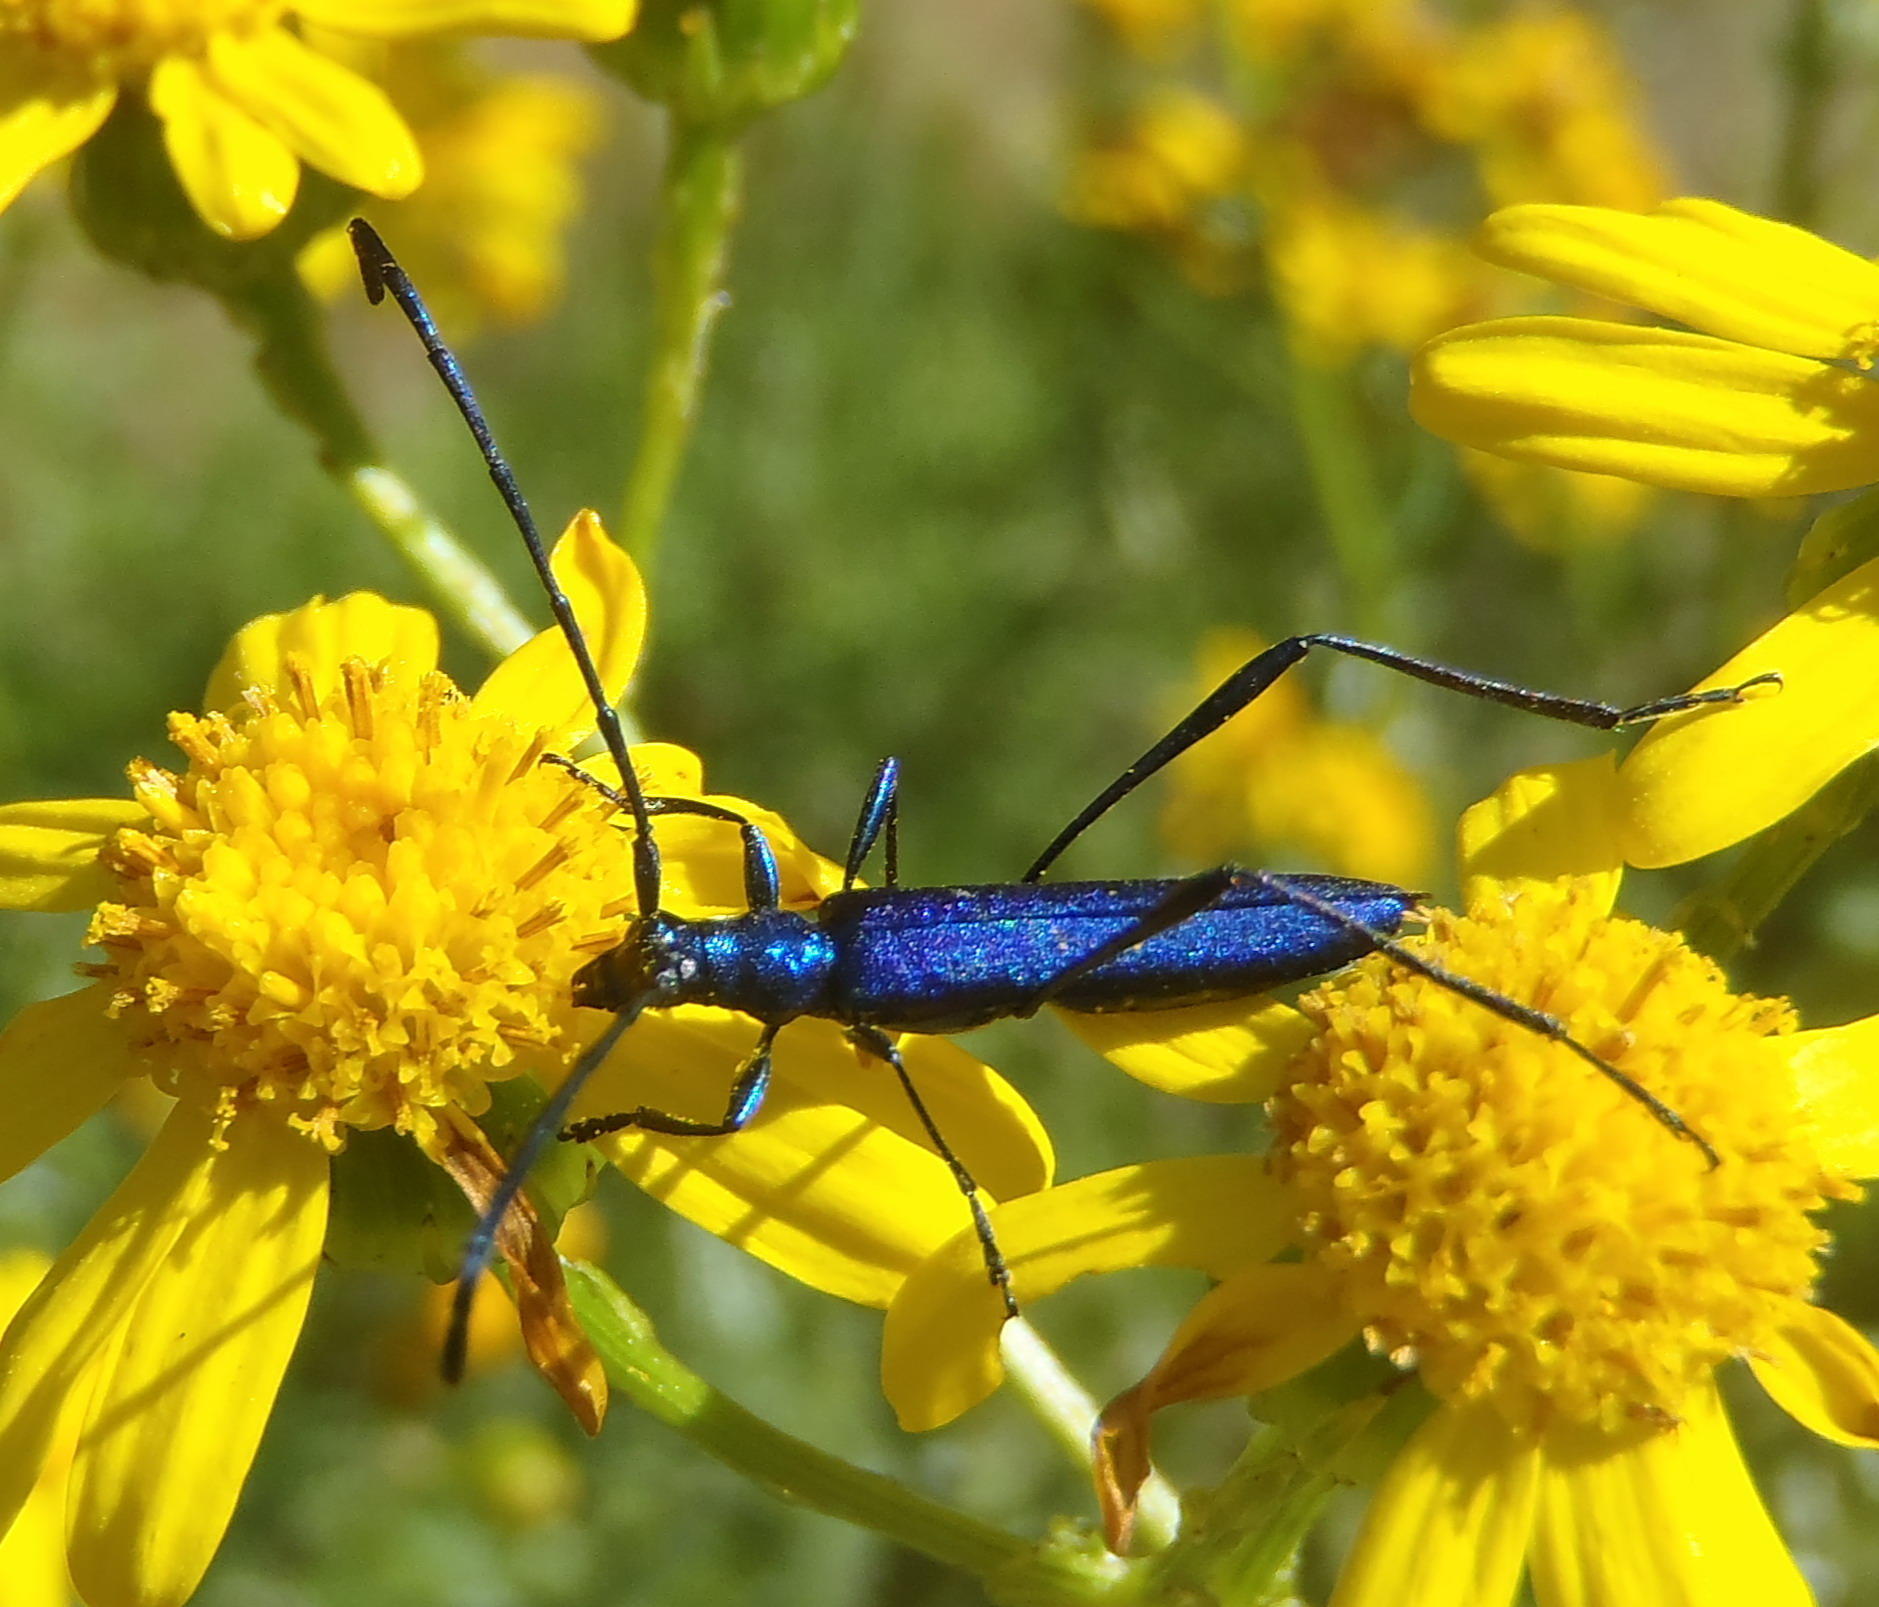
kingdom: Animalia
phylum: Arthropoda
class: Insecta
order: Coleoptera
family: Cerambycidae
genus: Promeces
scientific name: Promeces longipes
